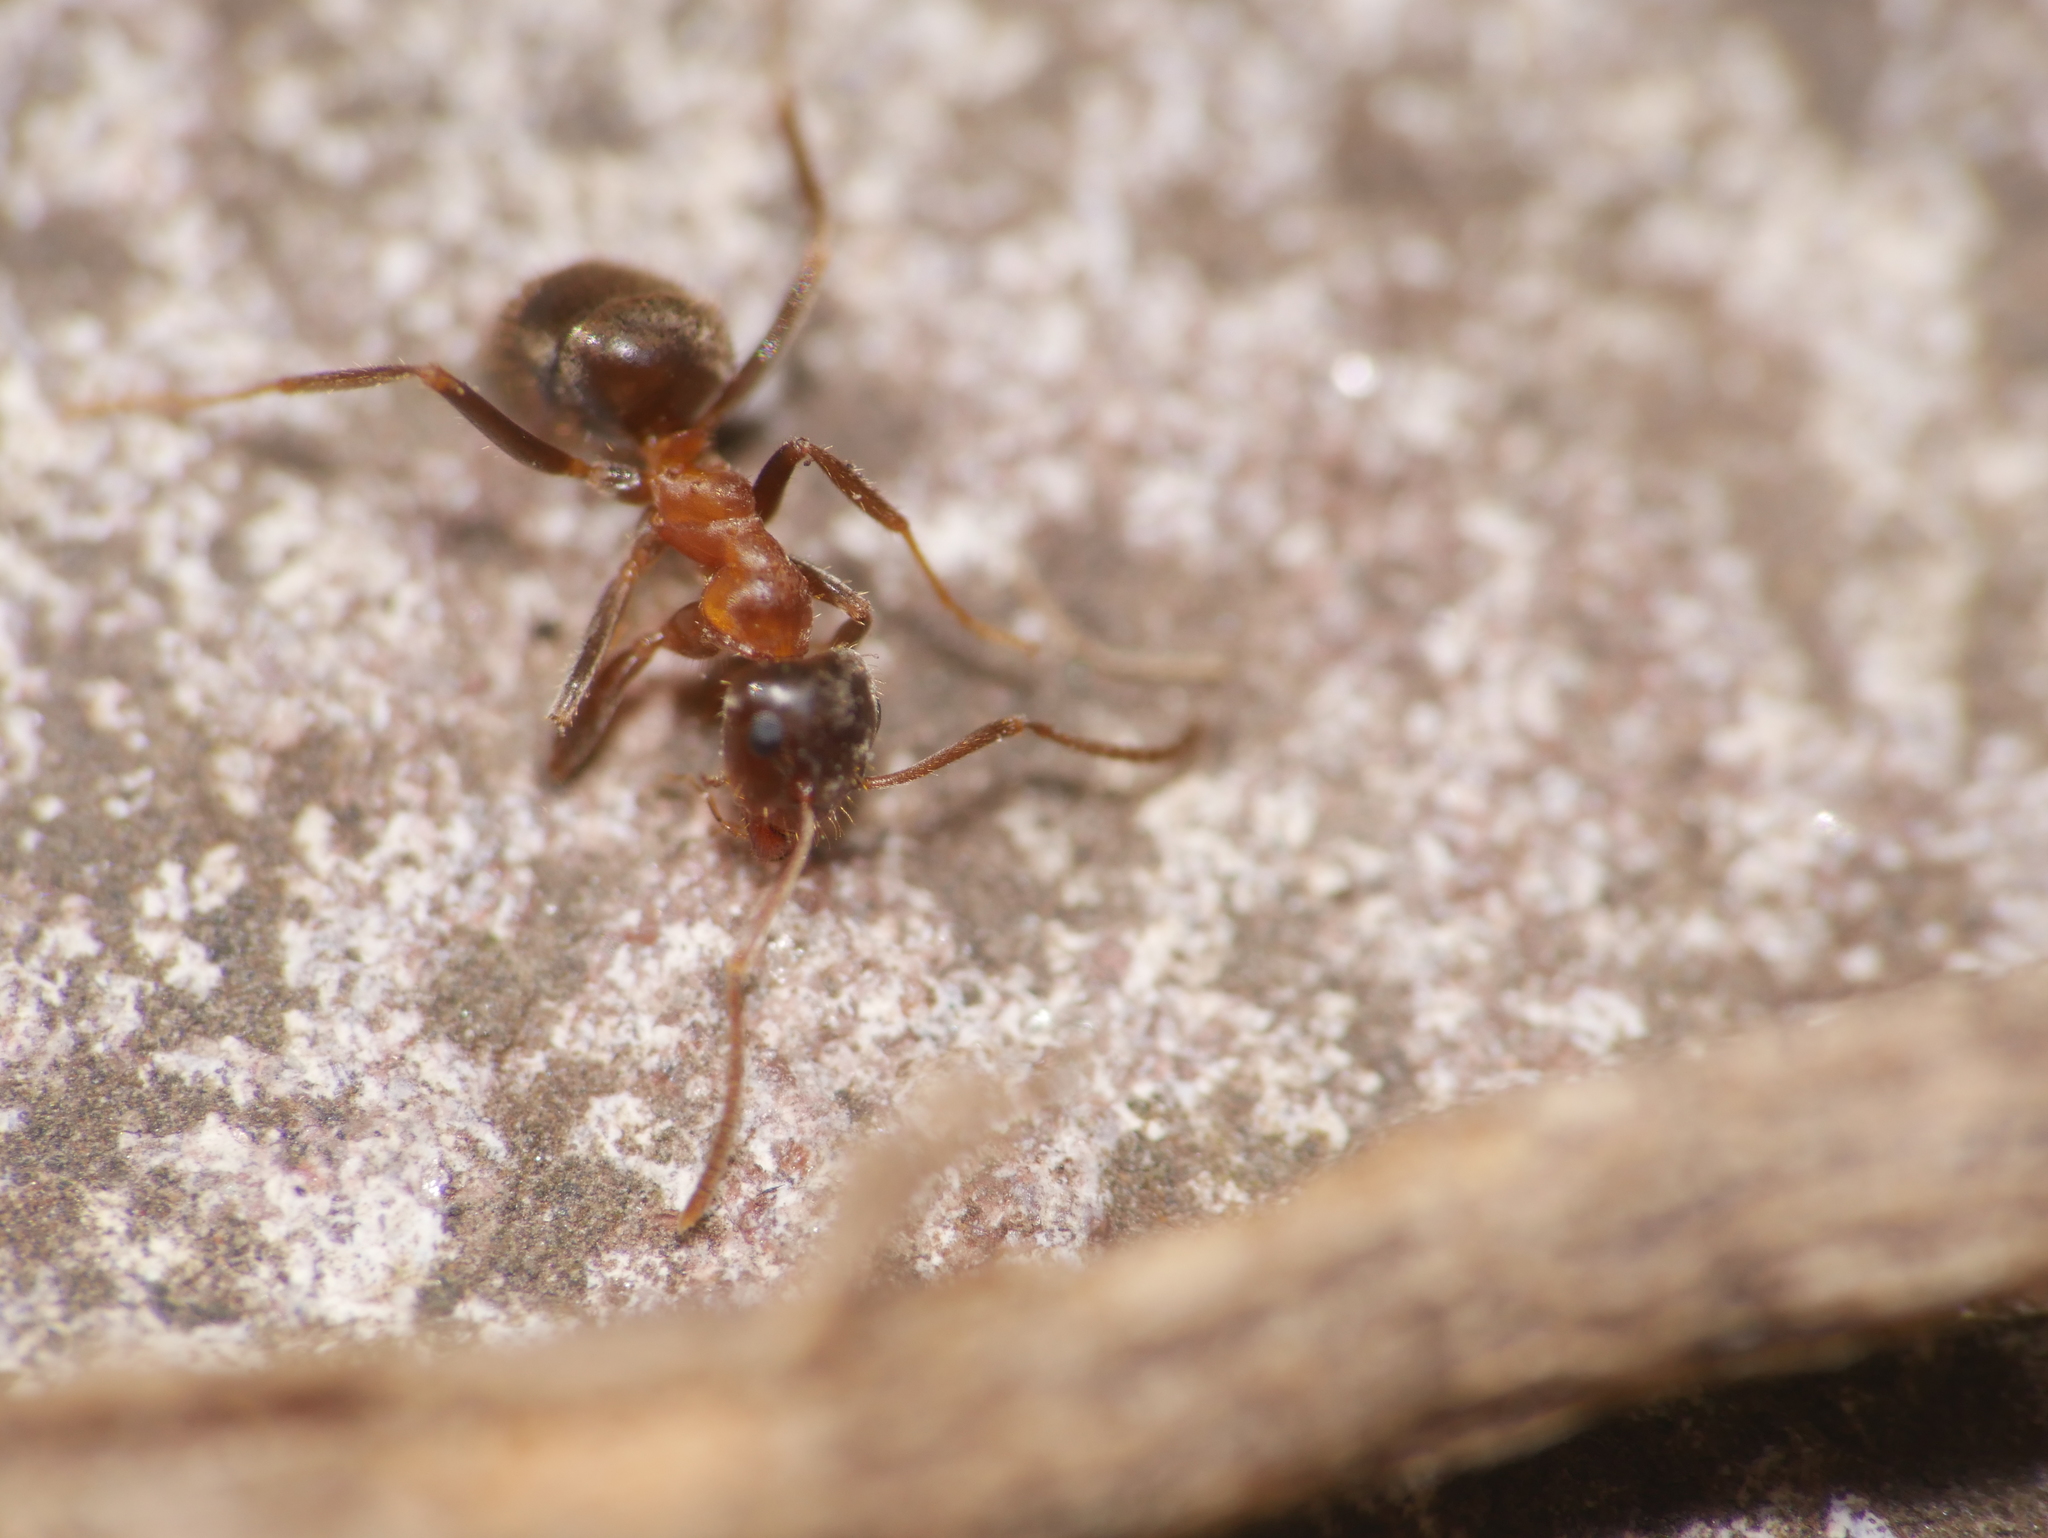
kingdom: Animalia
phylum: Arthropoda
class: Insecta
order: Hymenoptera
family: Formicidae
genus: Lasius
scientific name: Lasius emarginatus
